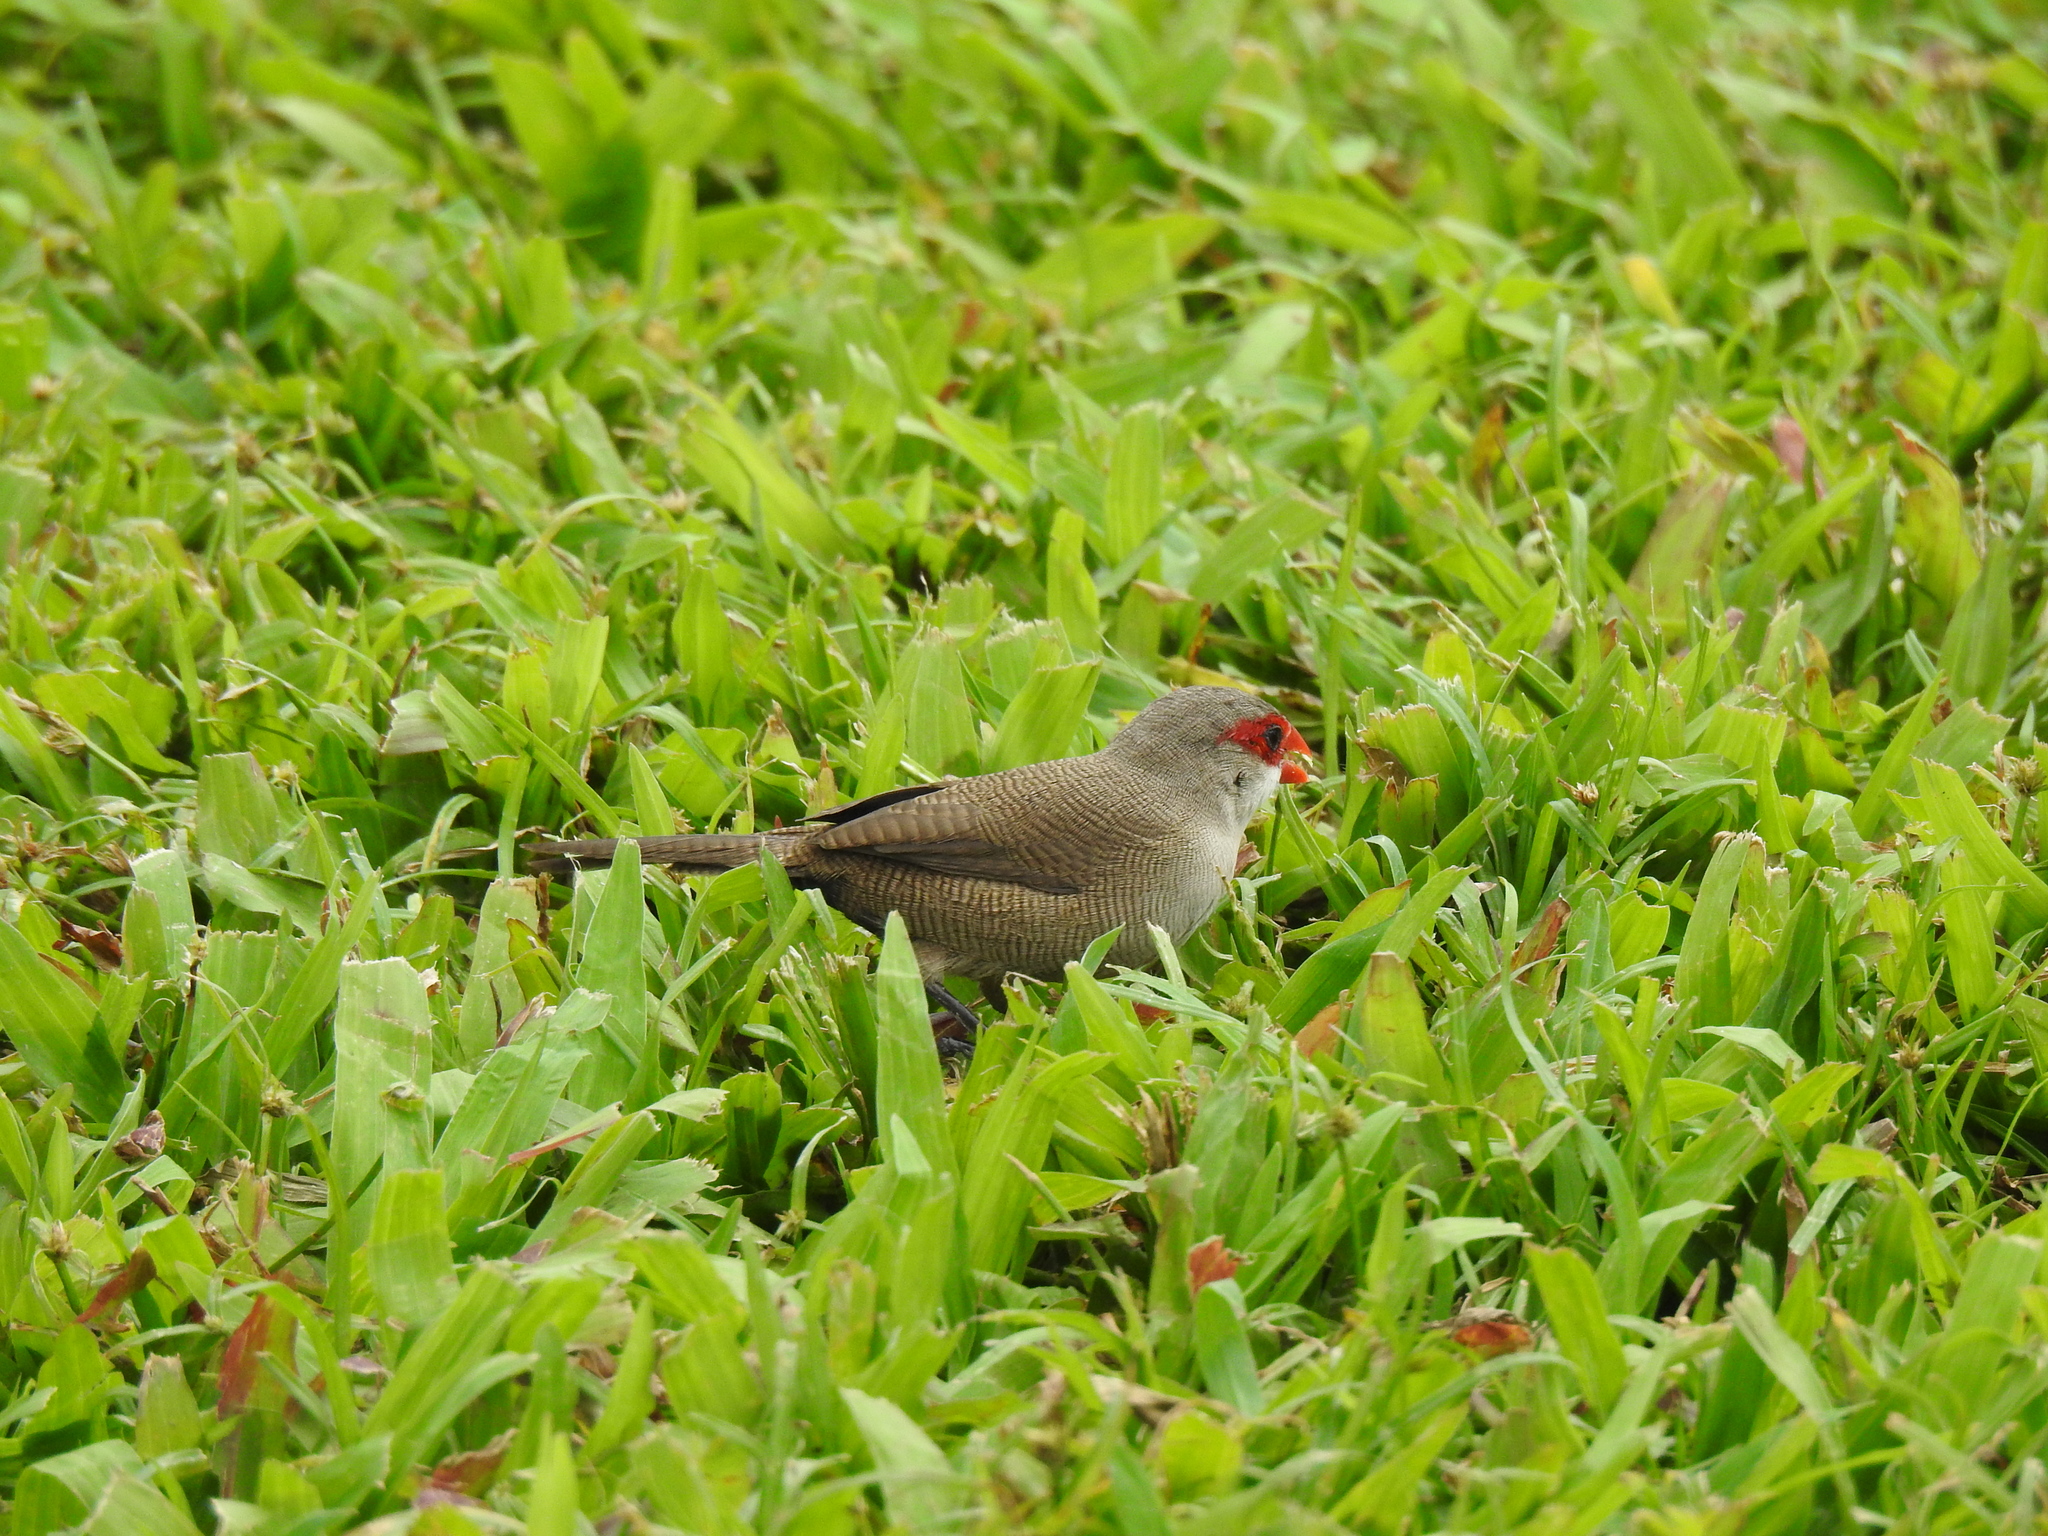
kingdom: Animalia
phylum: Chordata
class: Aves
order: Passeriformes
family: Estrildidae
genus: Estrilda
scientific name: Estrilda astrild
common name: Common waxbill
